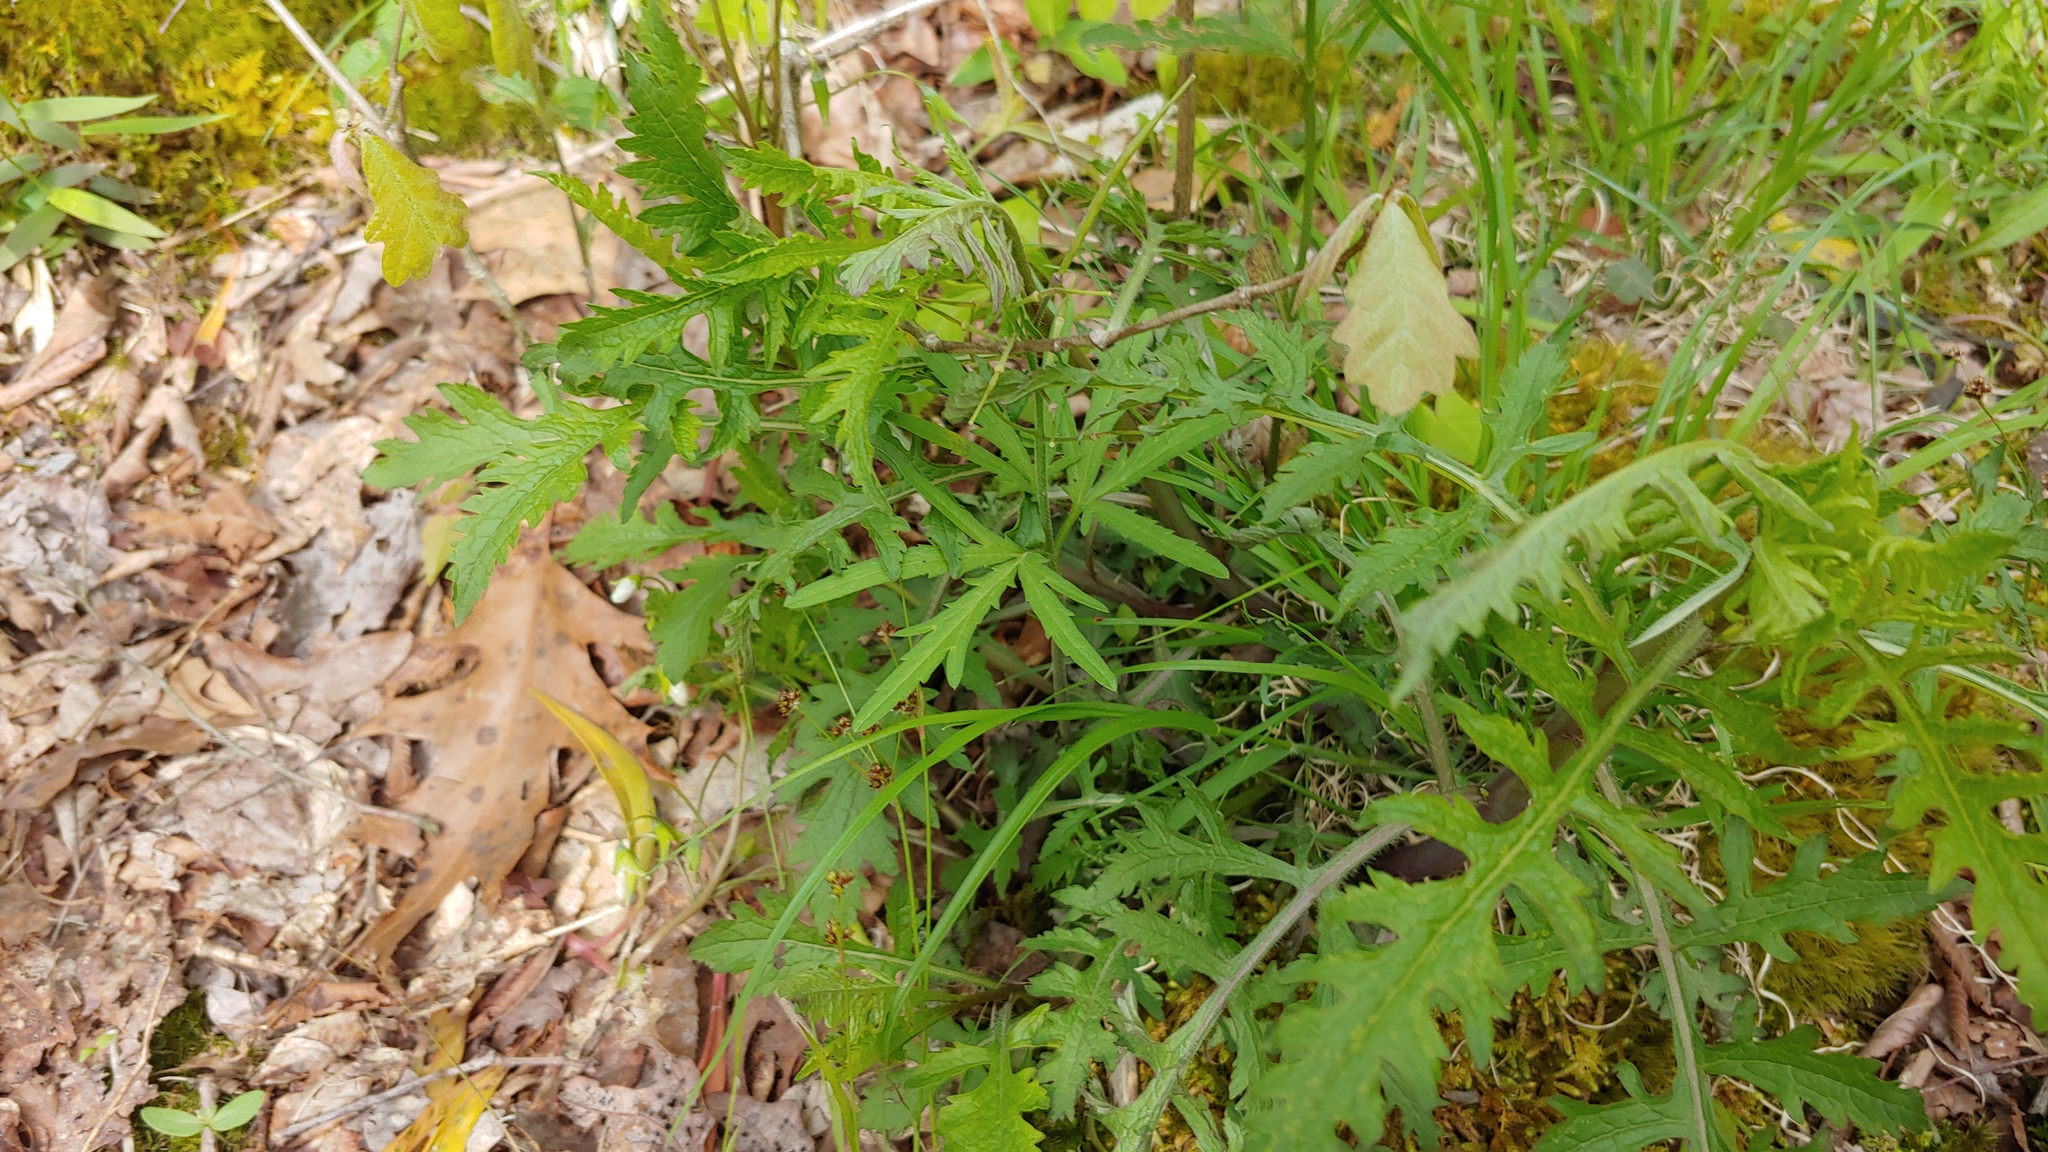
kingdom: Plantae
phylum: Tracheophyta
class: Magnoliopsida
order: Lamiales
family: Orobanchaceae
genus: Aureolaria
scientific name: Aureolaria flava
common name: Smooth false foxglove
